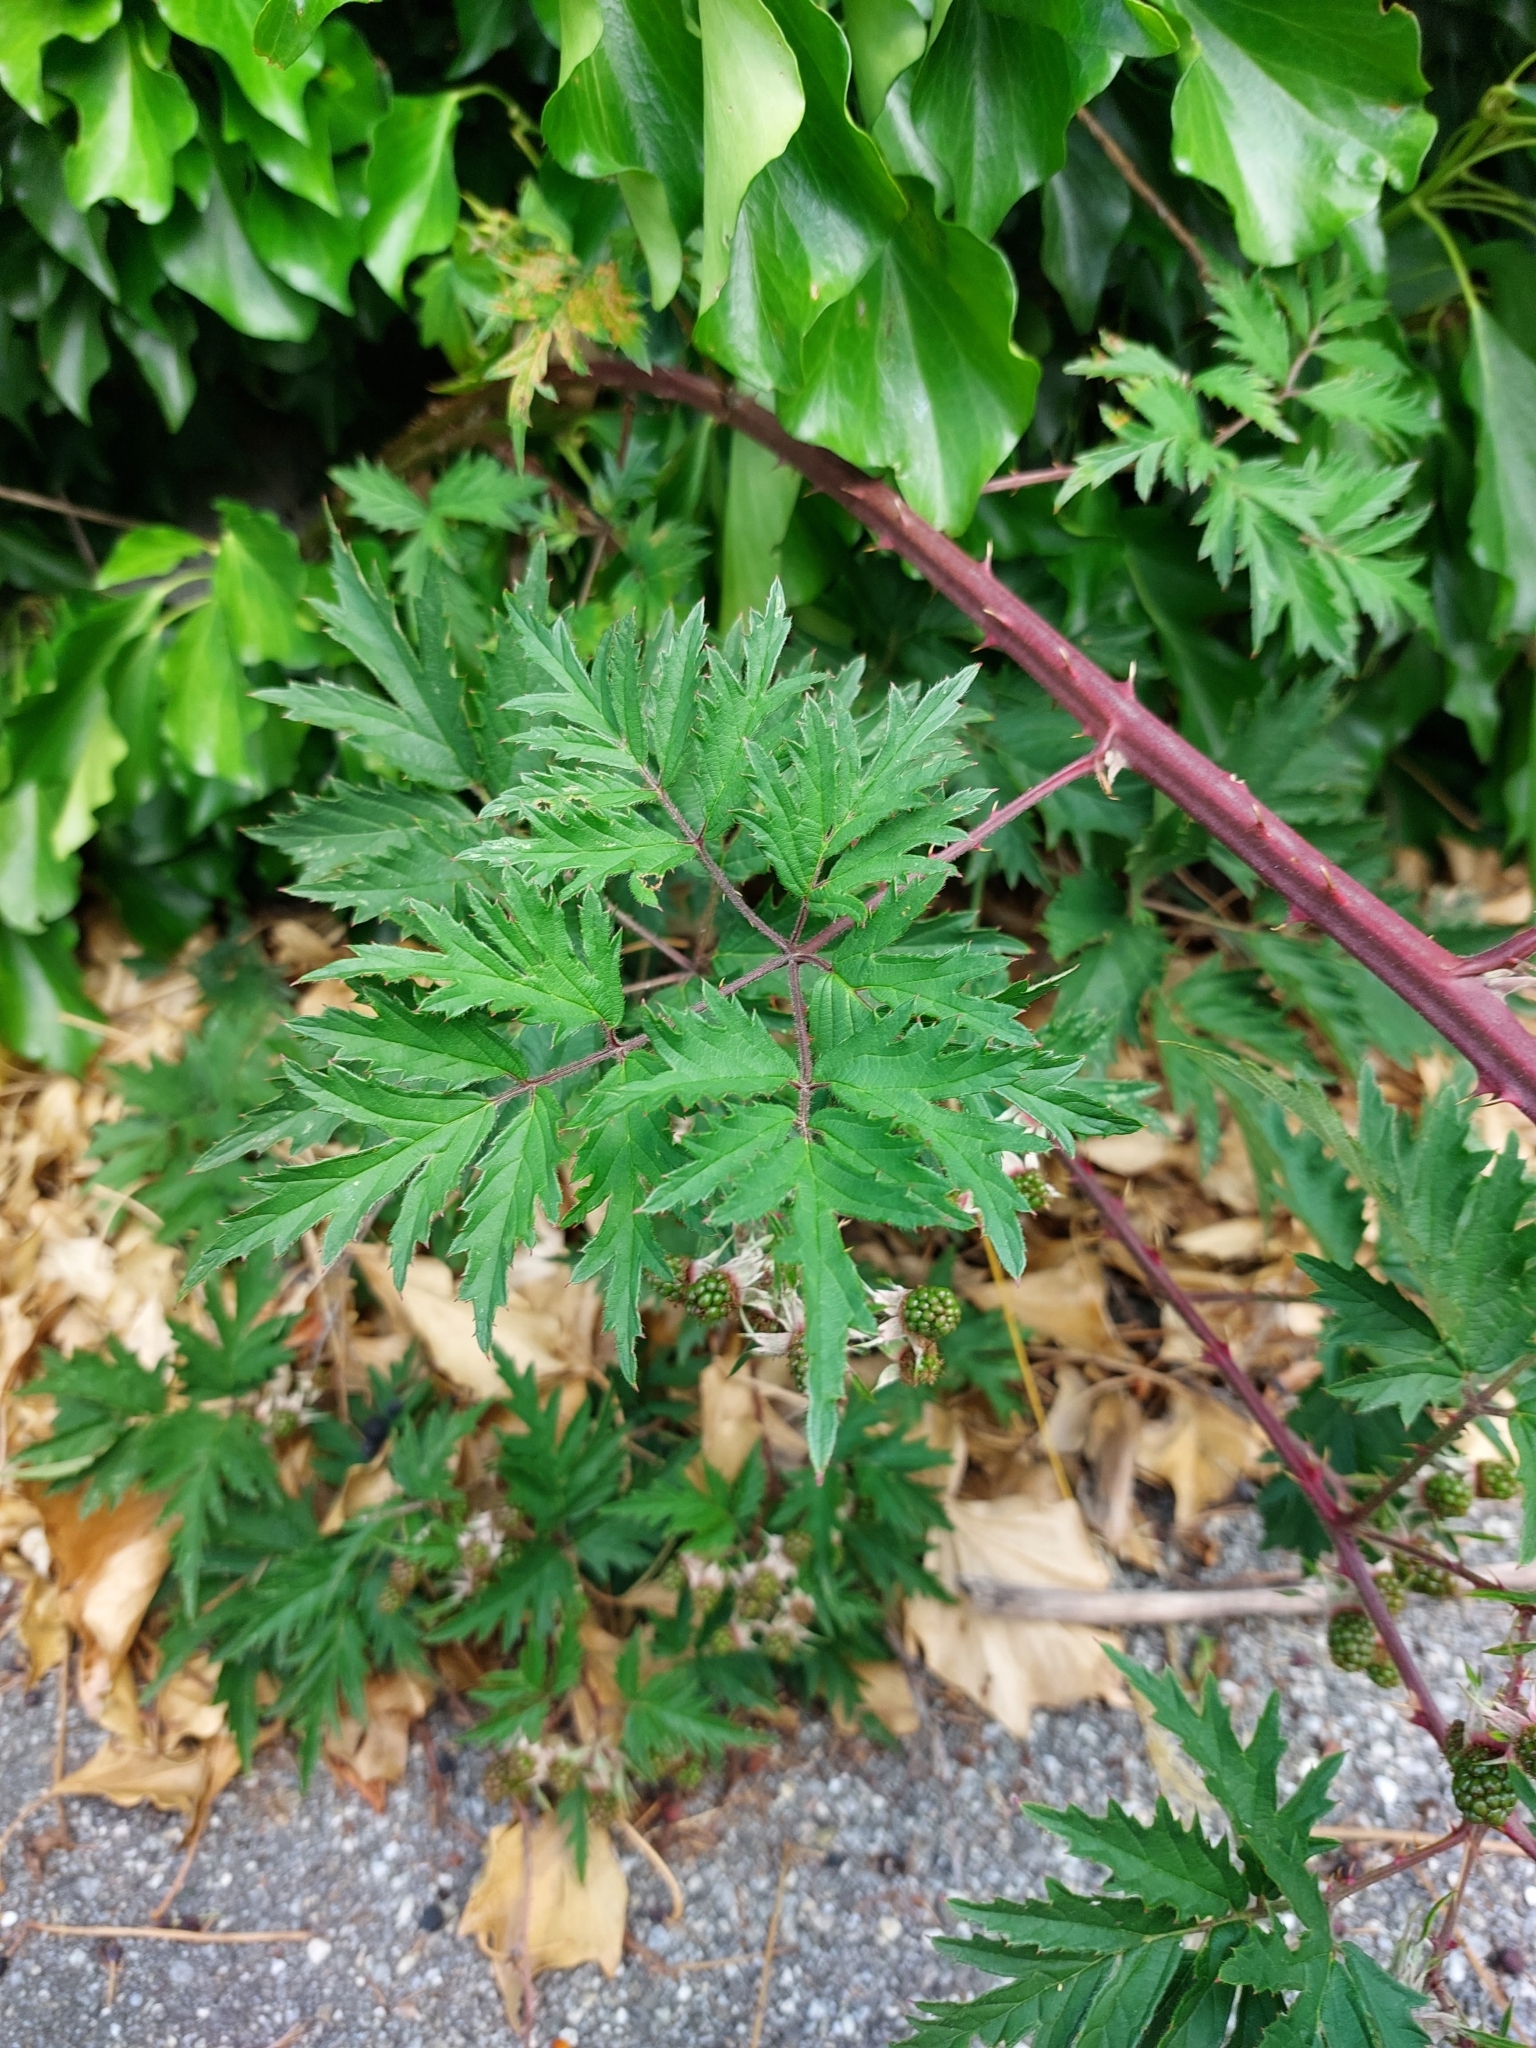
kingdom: Plantae
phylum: Tracheophyta
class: Magnoliopsida
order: Rosales
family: Rosaceae
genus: Rubus
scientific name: Rubus laciniatus
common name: Evergreen blackberry
